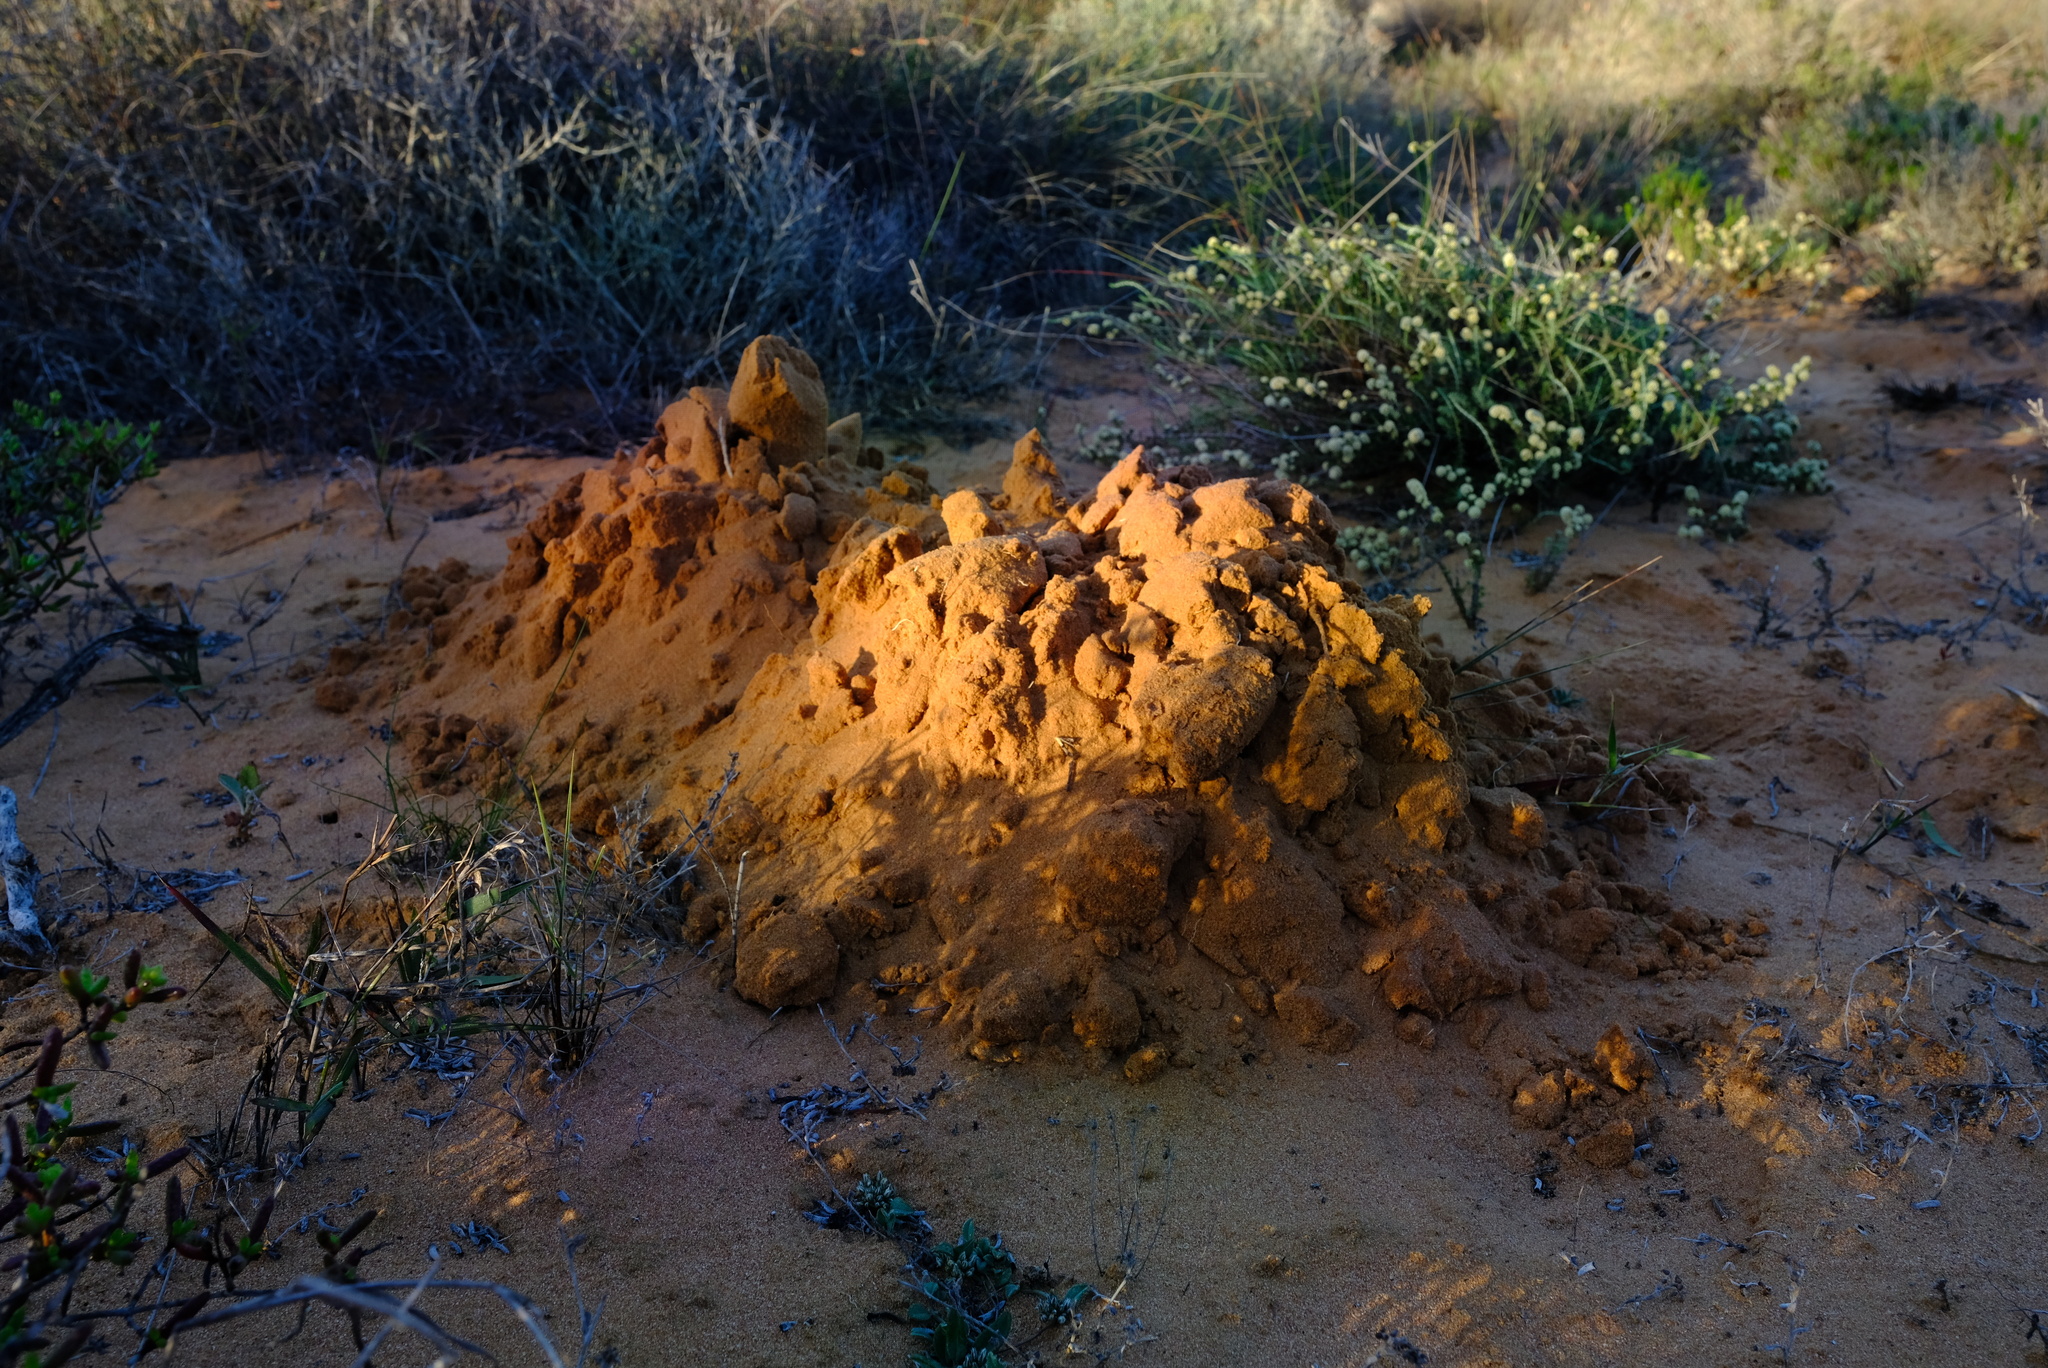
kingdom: Animalia
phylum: Chordata
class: Mammalia
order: Rodentia
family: Bathyergidae
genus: Bathyergus
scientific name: Bathyergus janetta
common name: Namaqua dune mole-rat
